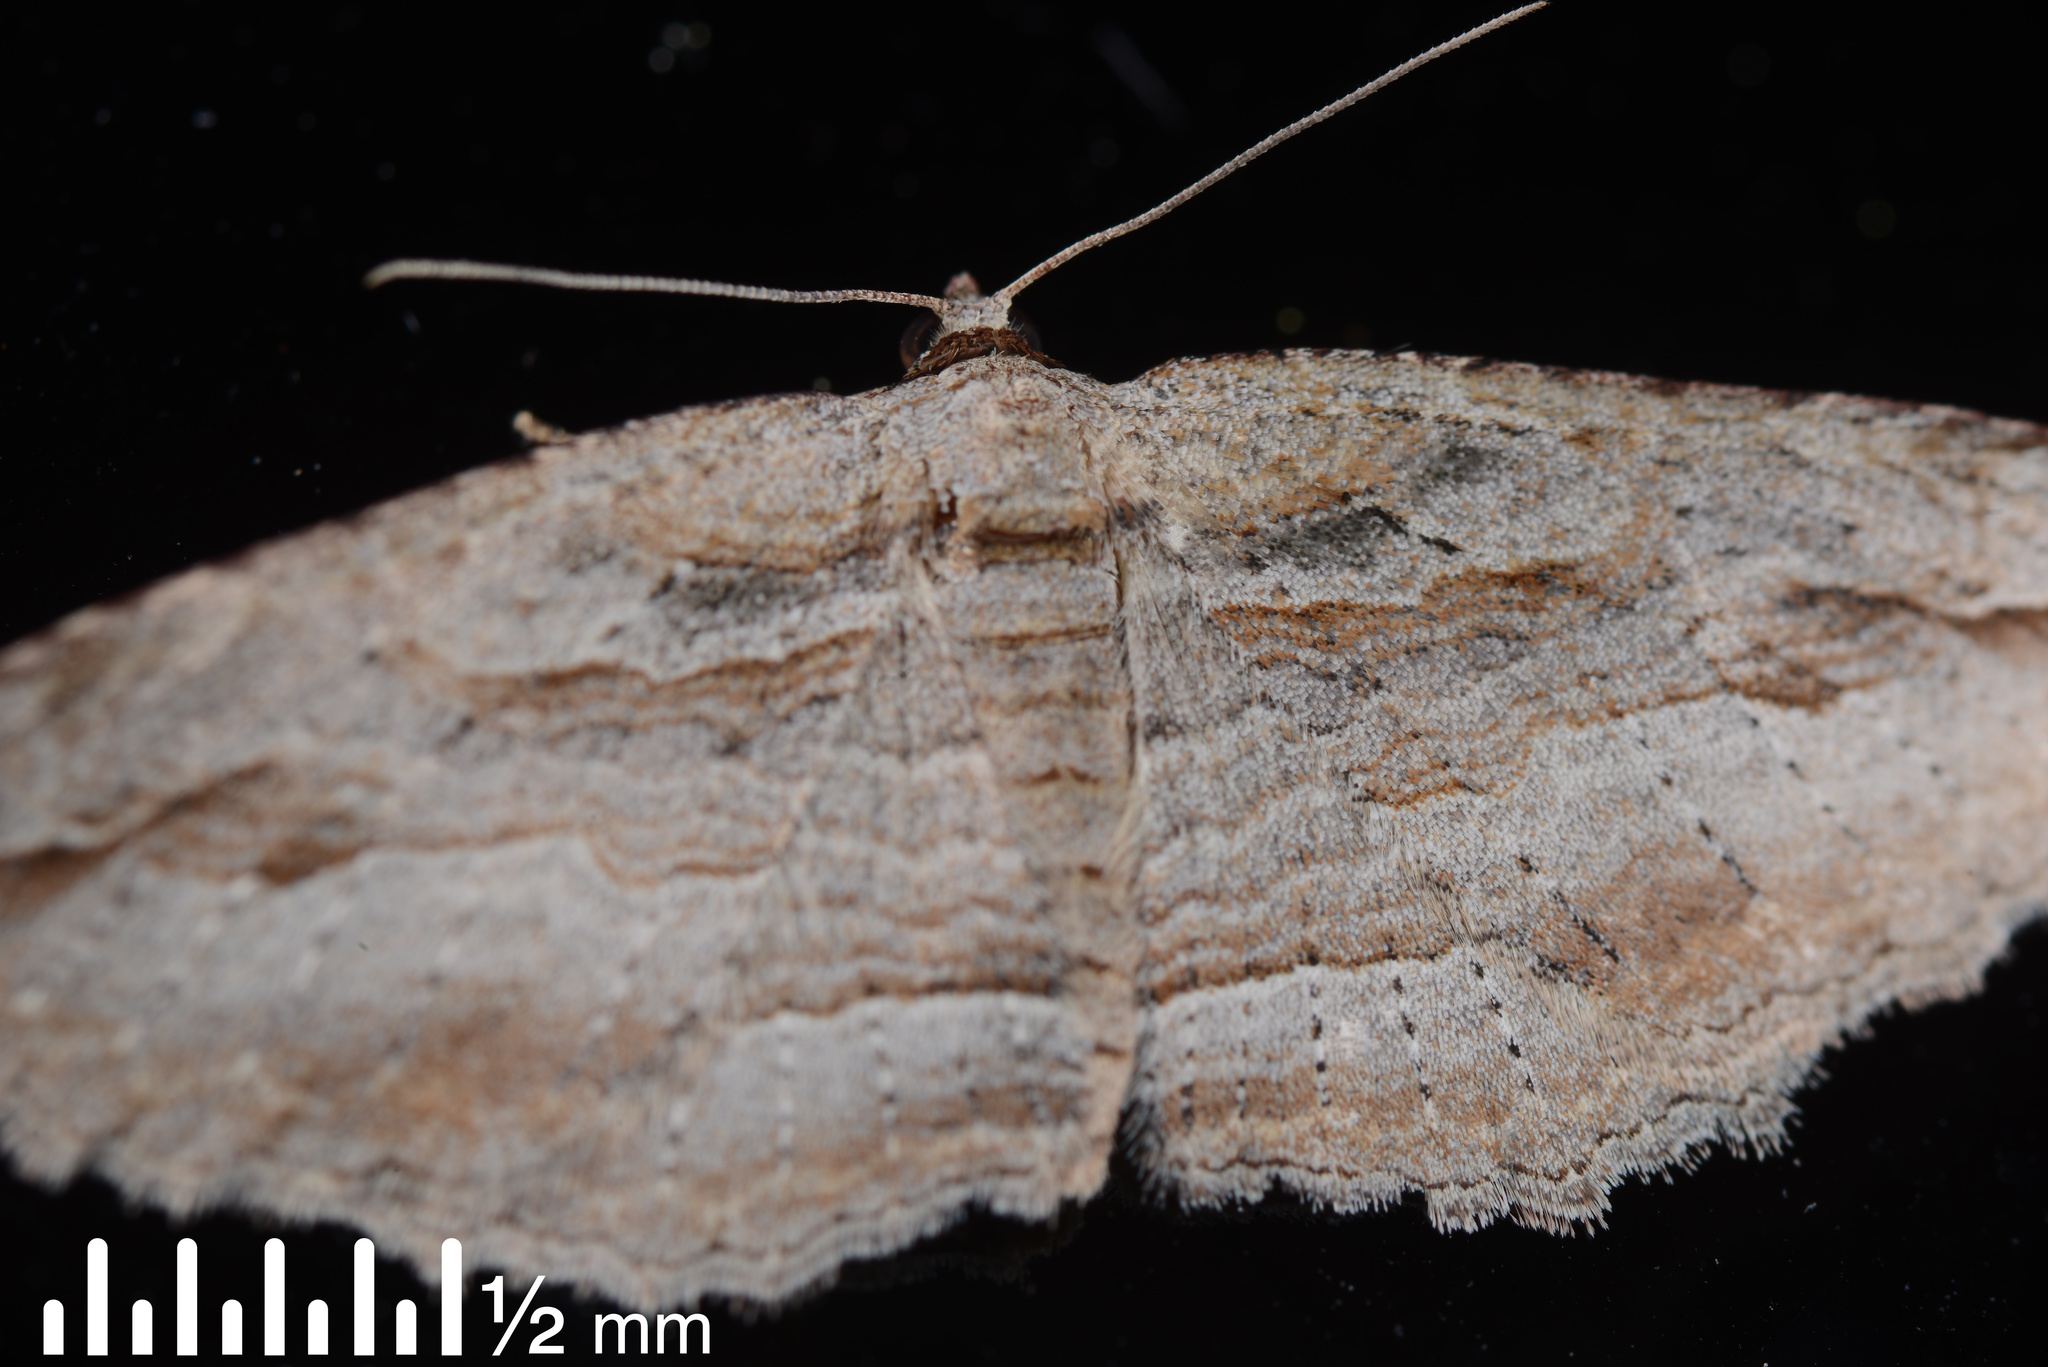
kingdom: Animalia
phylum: Arthropoda
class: Insecta
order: Lepidoptera
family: Geometridae
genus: Austrocidaria
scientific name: Austrocidaria gobiata
